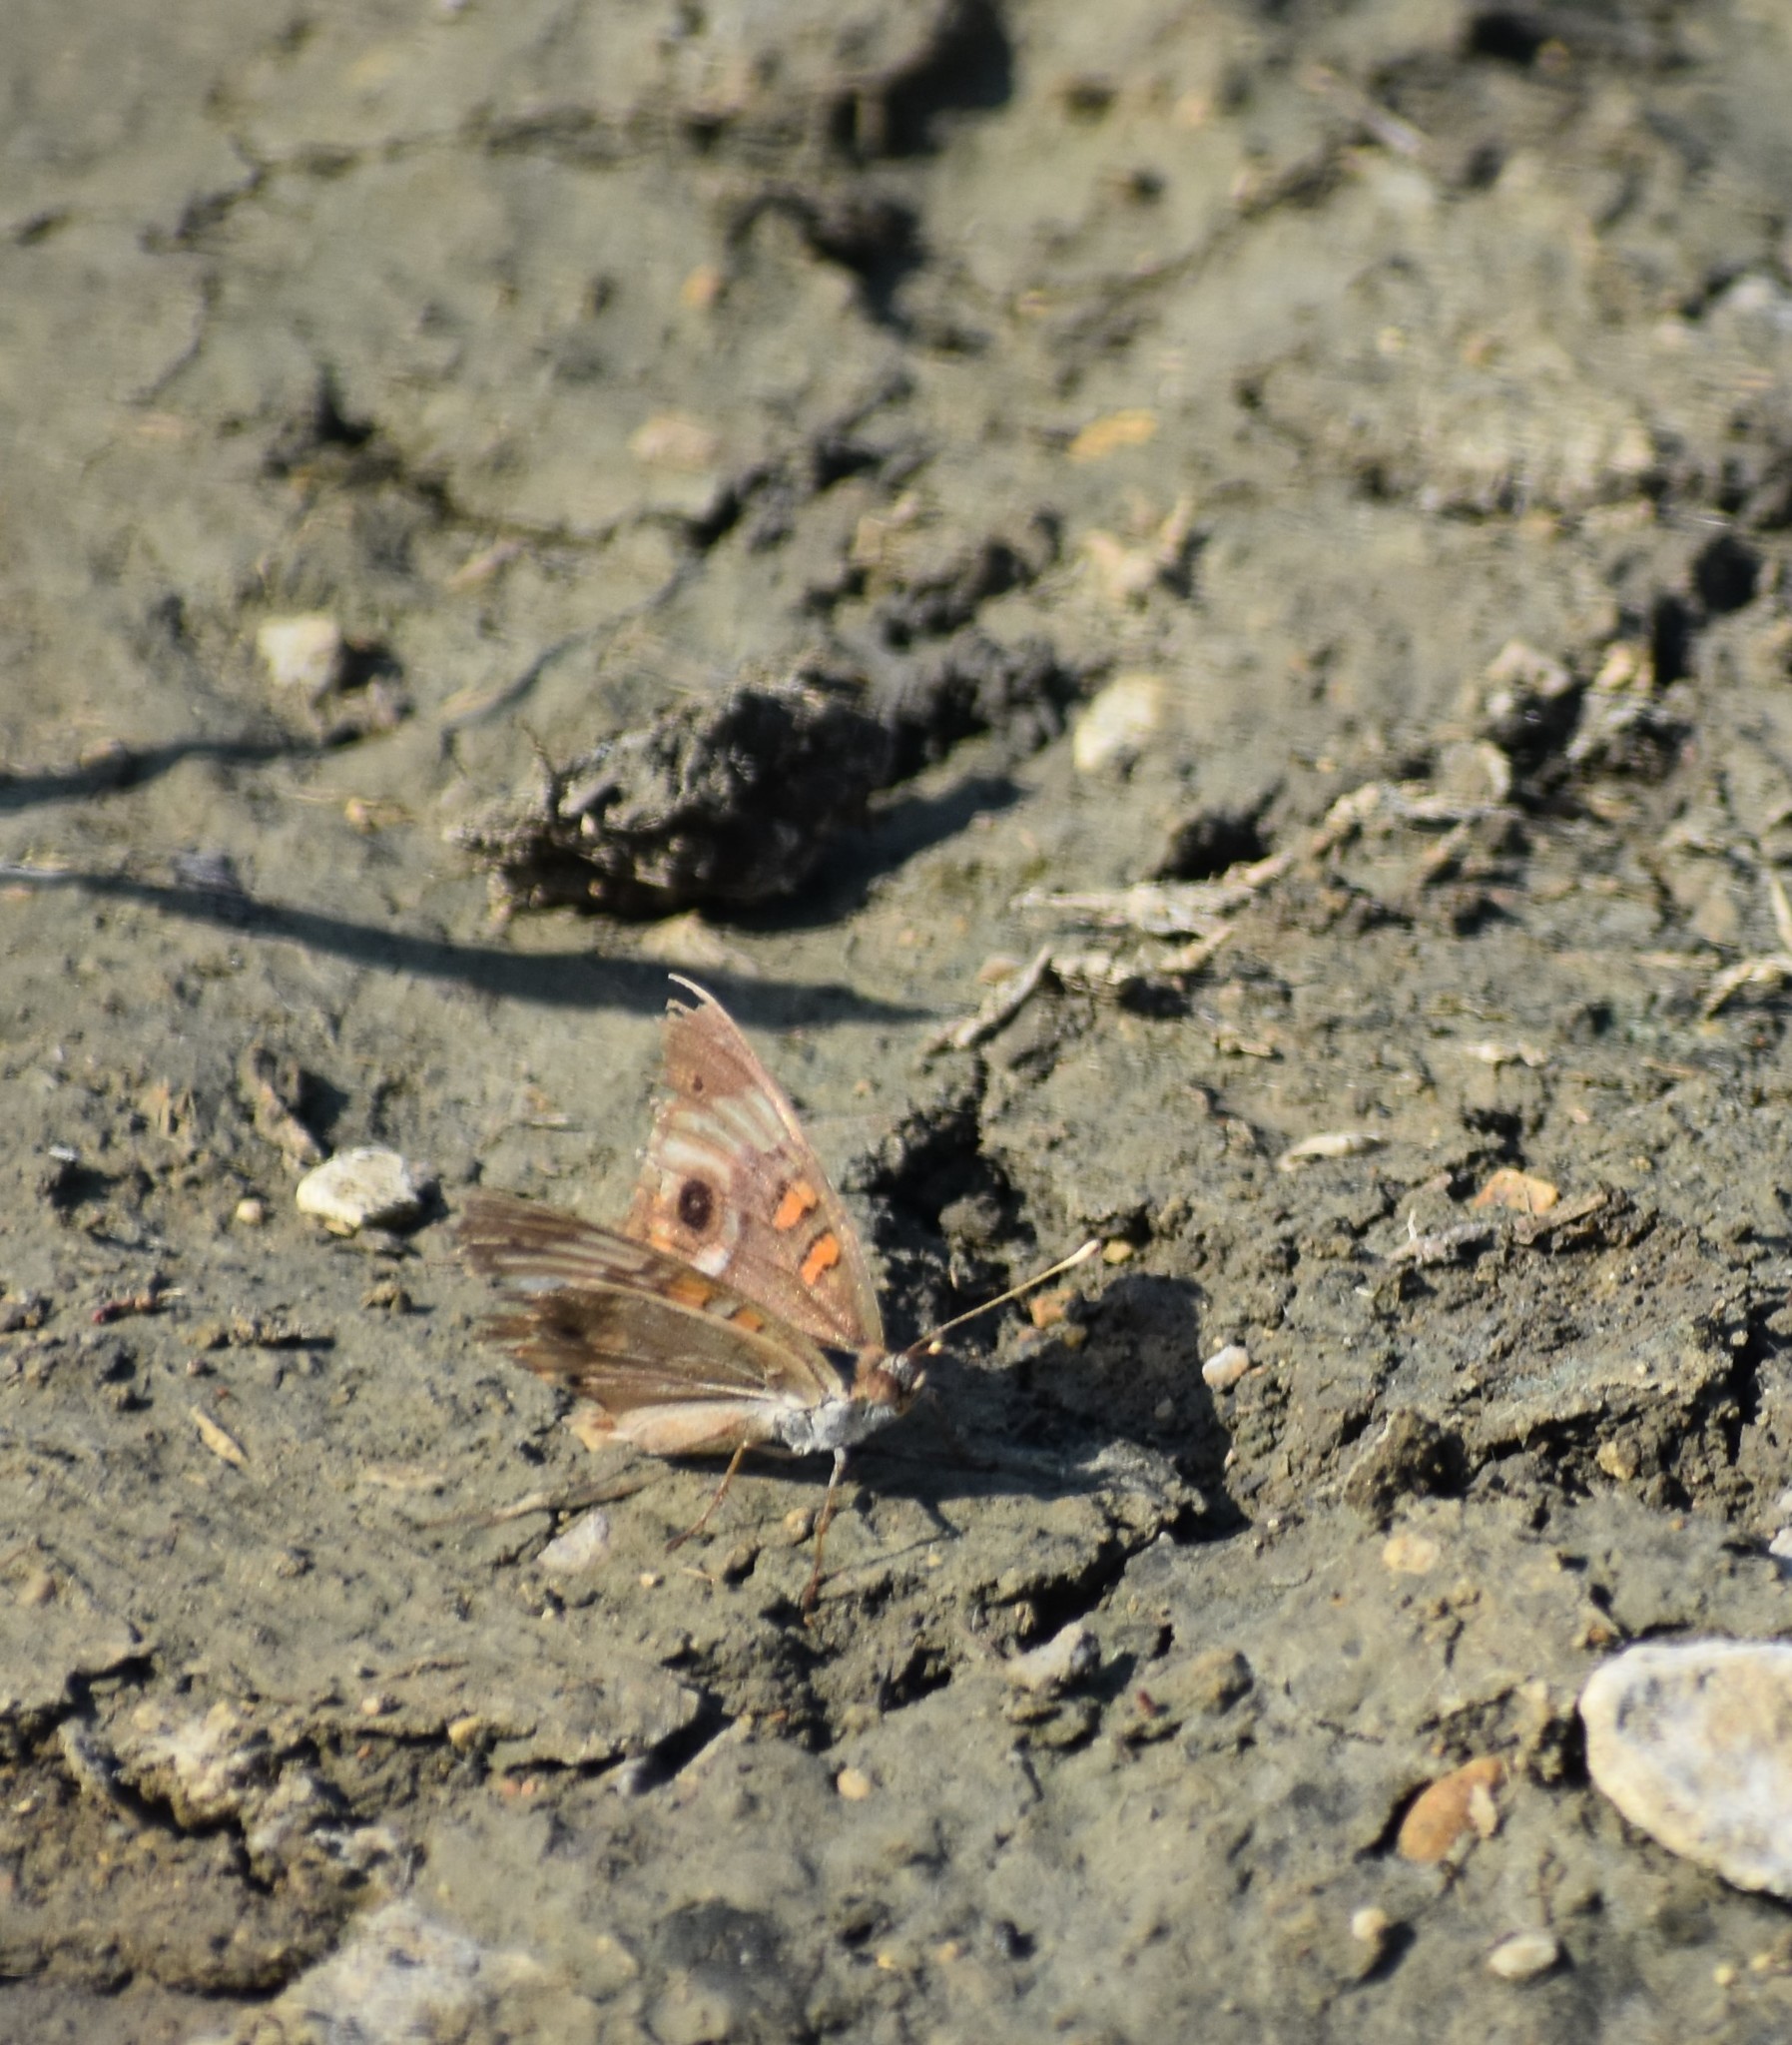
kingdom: Animalia
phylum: Arthropoda
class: Insecta
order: Lepidoptera
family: Nymphalidae
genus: Junonia
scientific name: Junonia coenia
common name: Common buckeye
